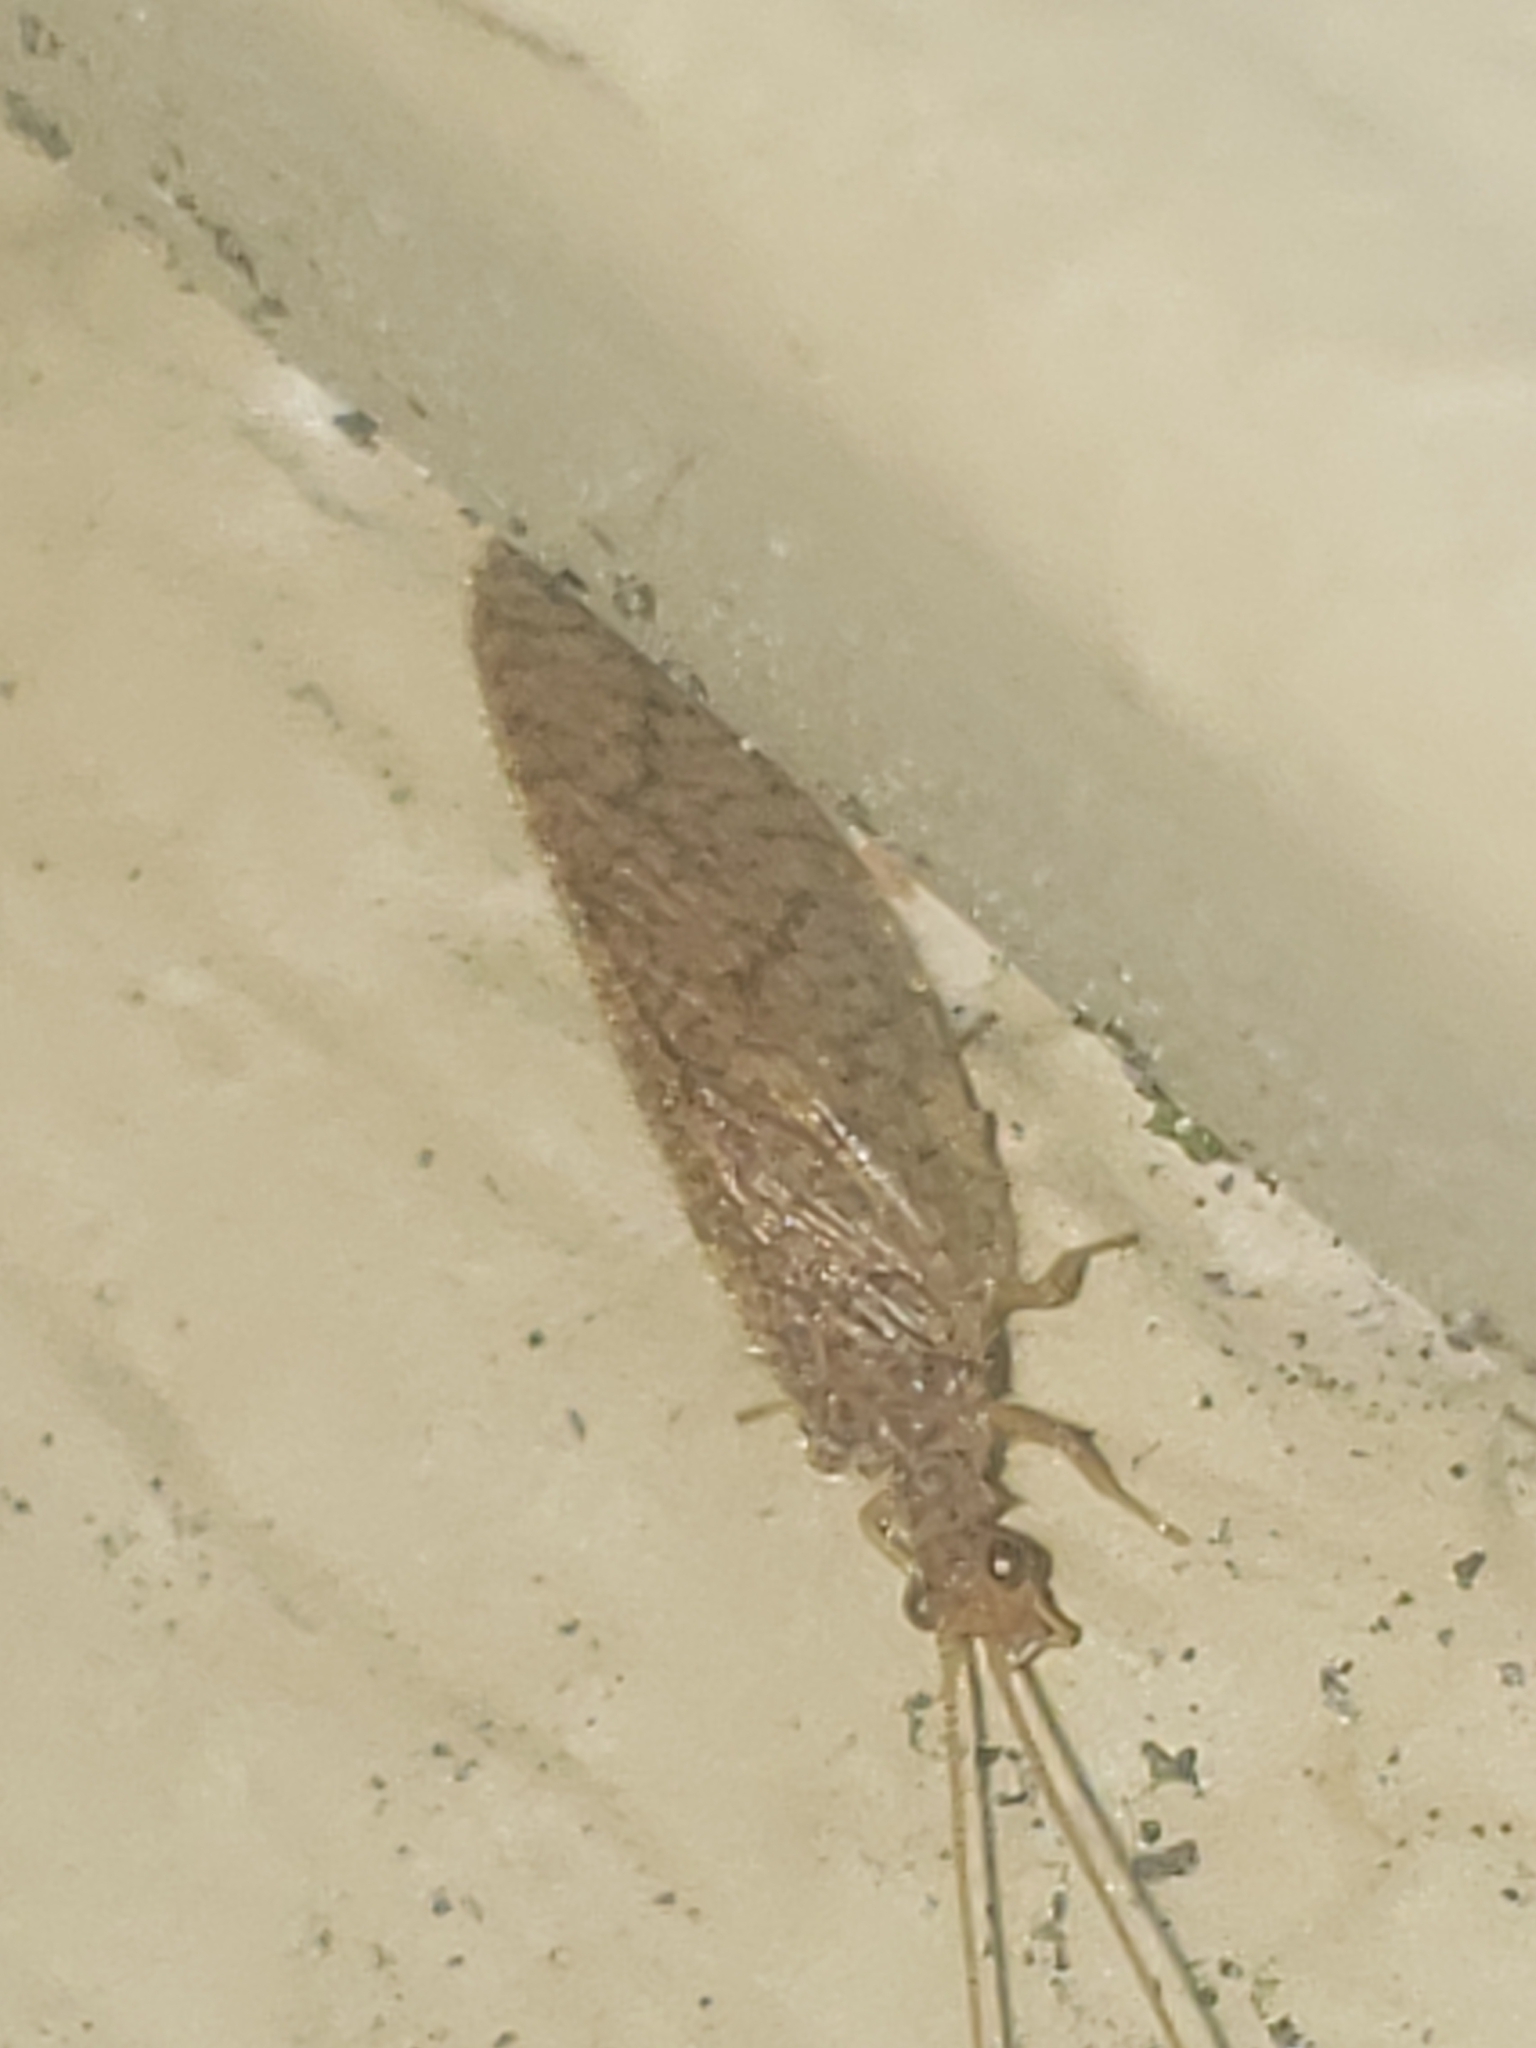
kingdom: Animalia
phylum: Arthropoda
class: Insecta
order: Neuroptera
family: Hemerobiidae
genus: Micromus
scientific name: Micromus posticus
